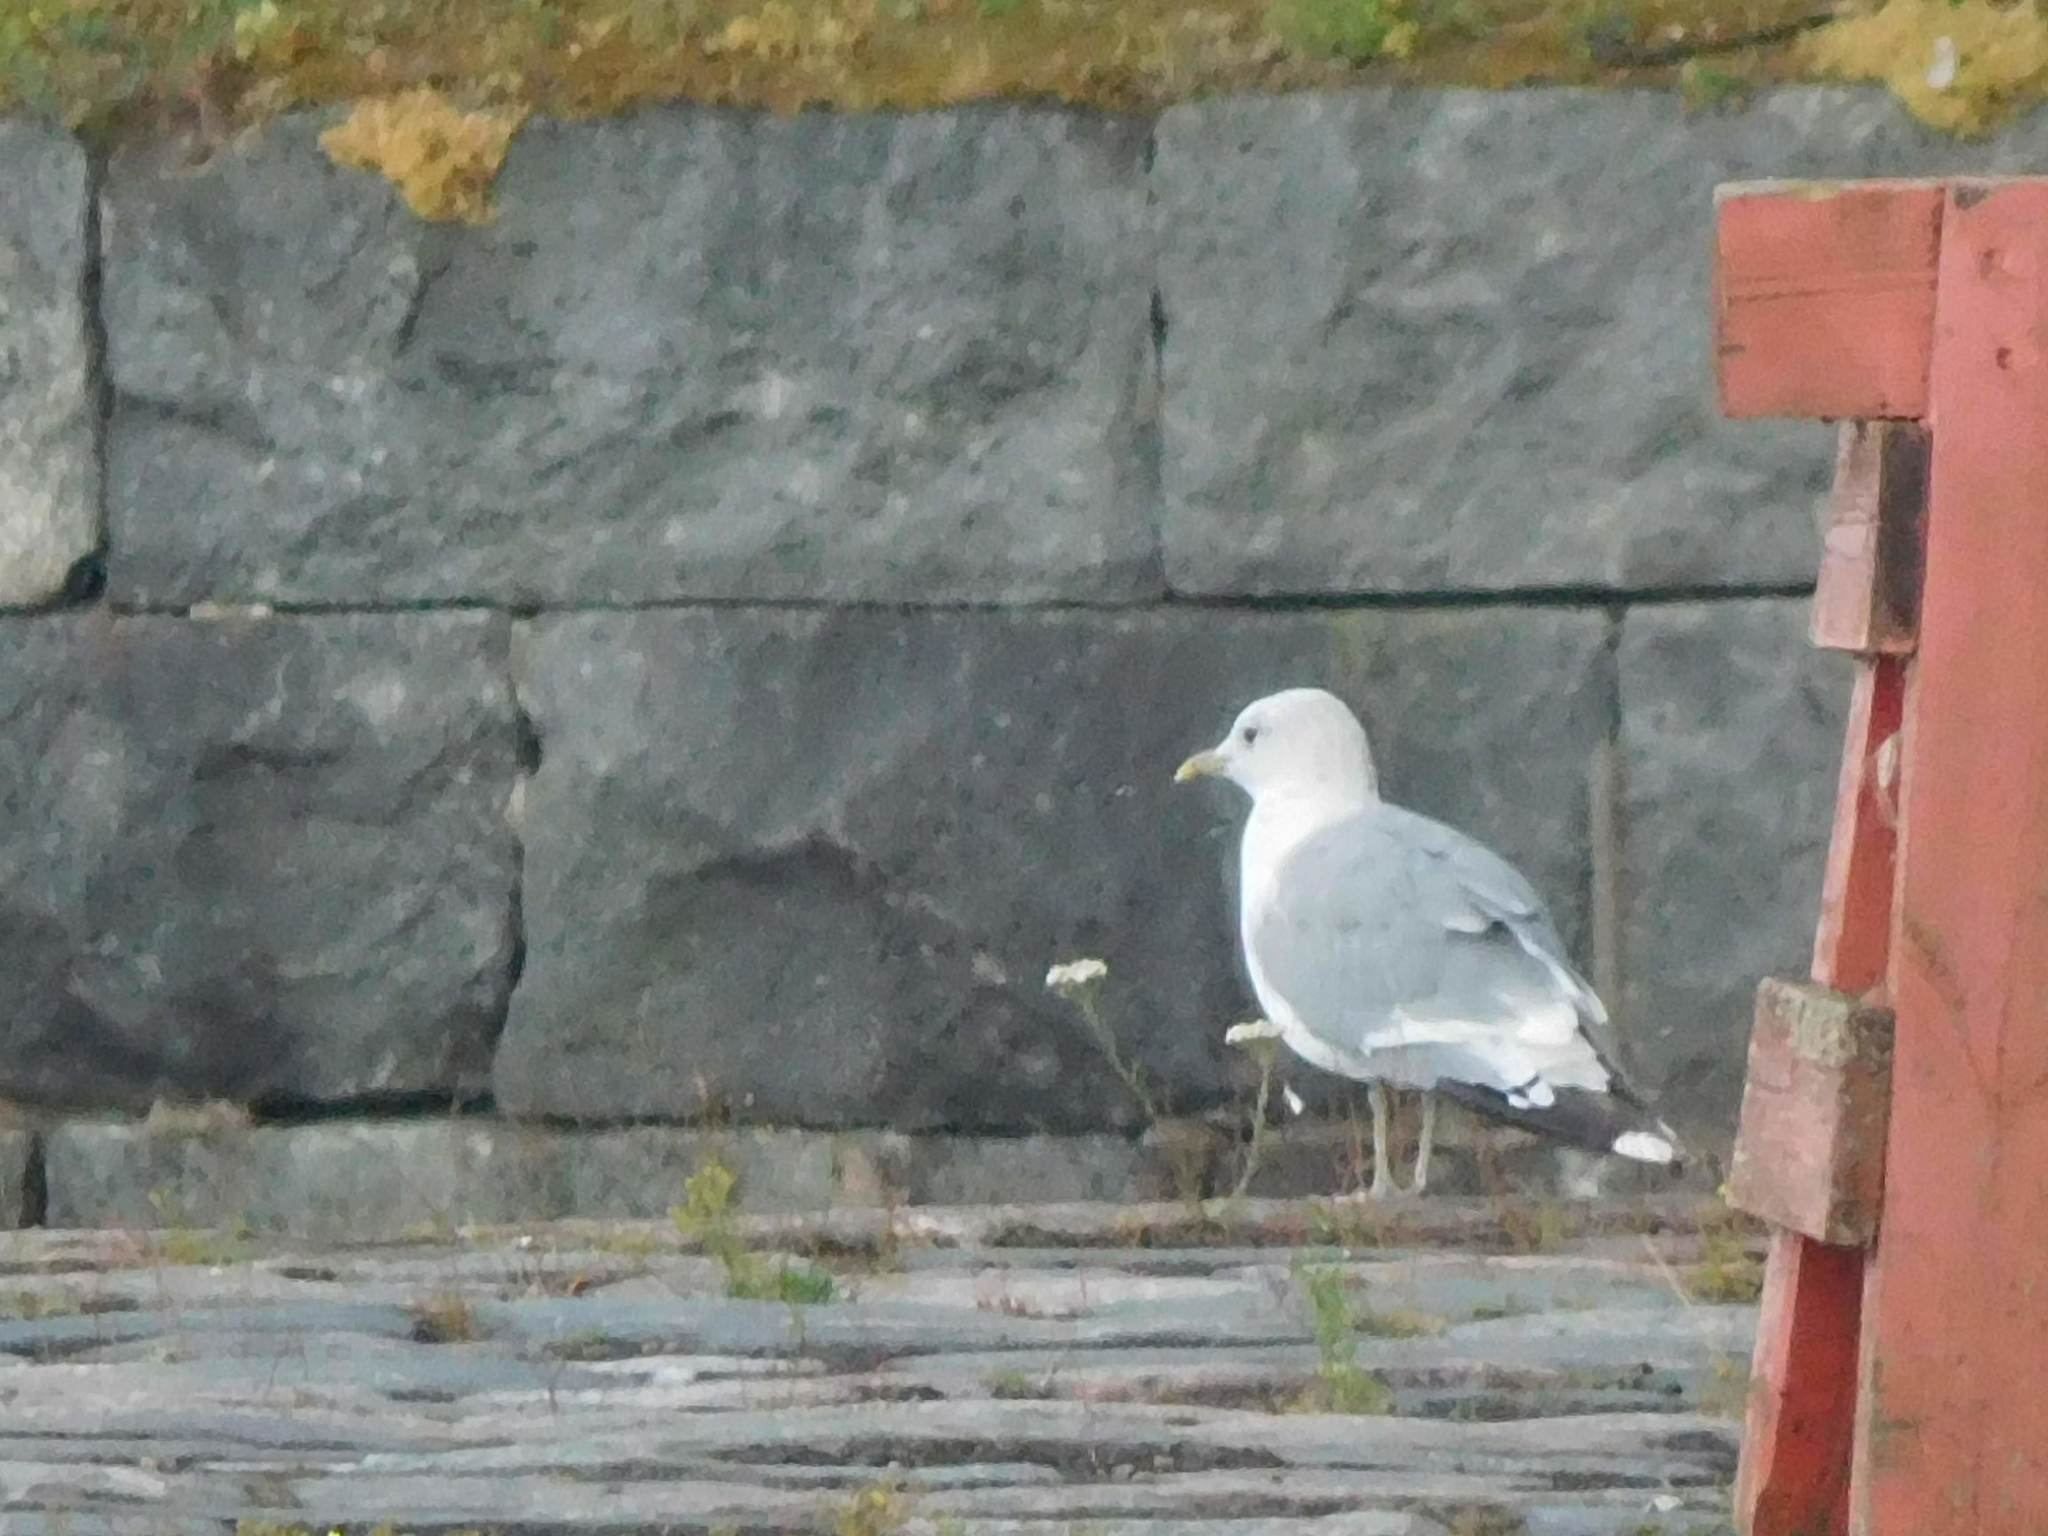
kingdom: Animalia
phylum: Chordata
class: Aves
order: Charadriiformes
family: Laridae
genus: Larus
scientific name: Larus canus
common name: Mew gull
